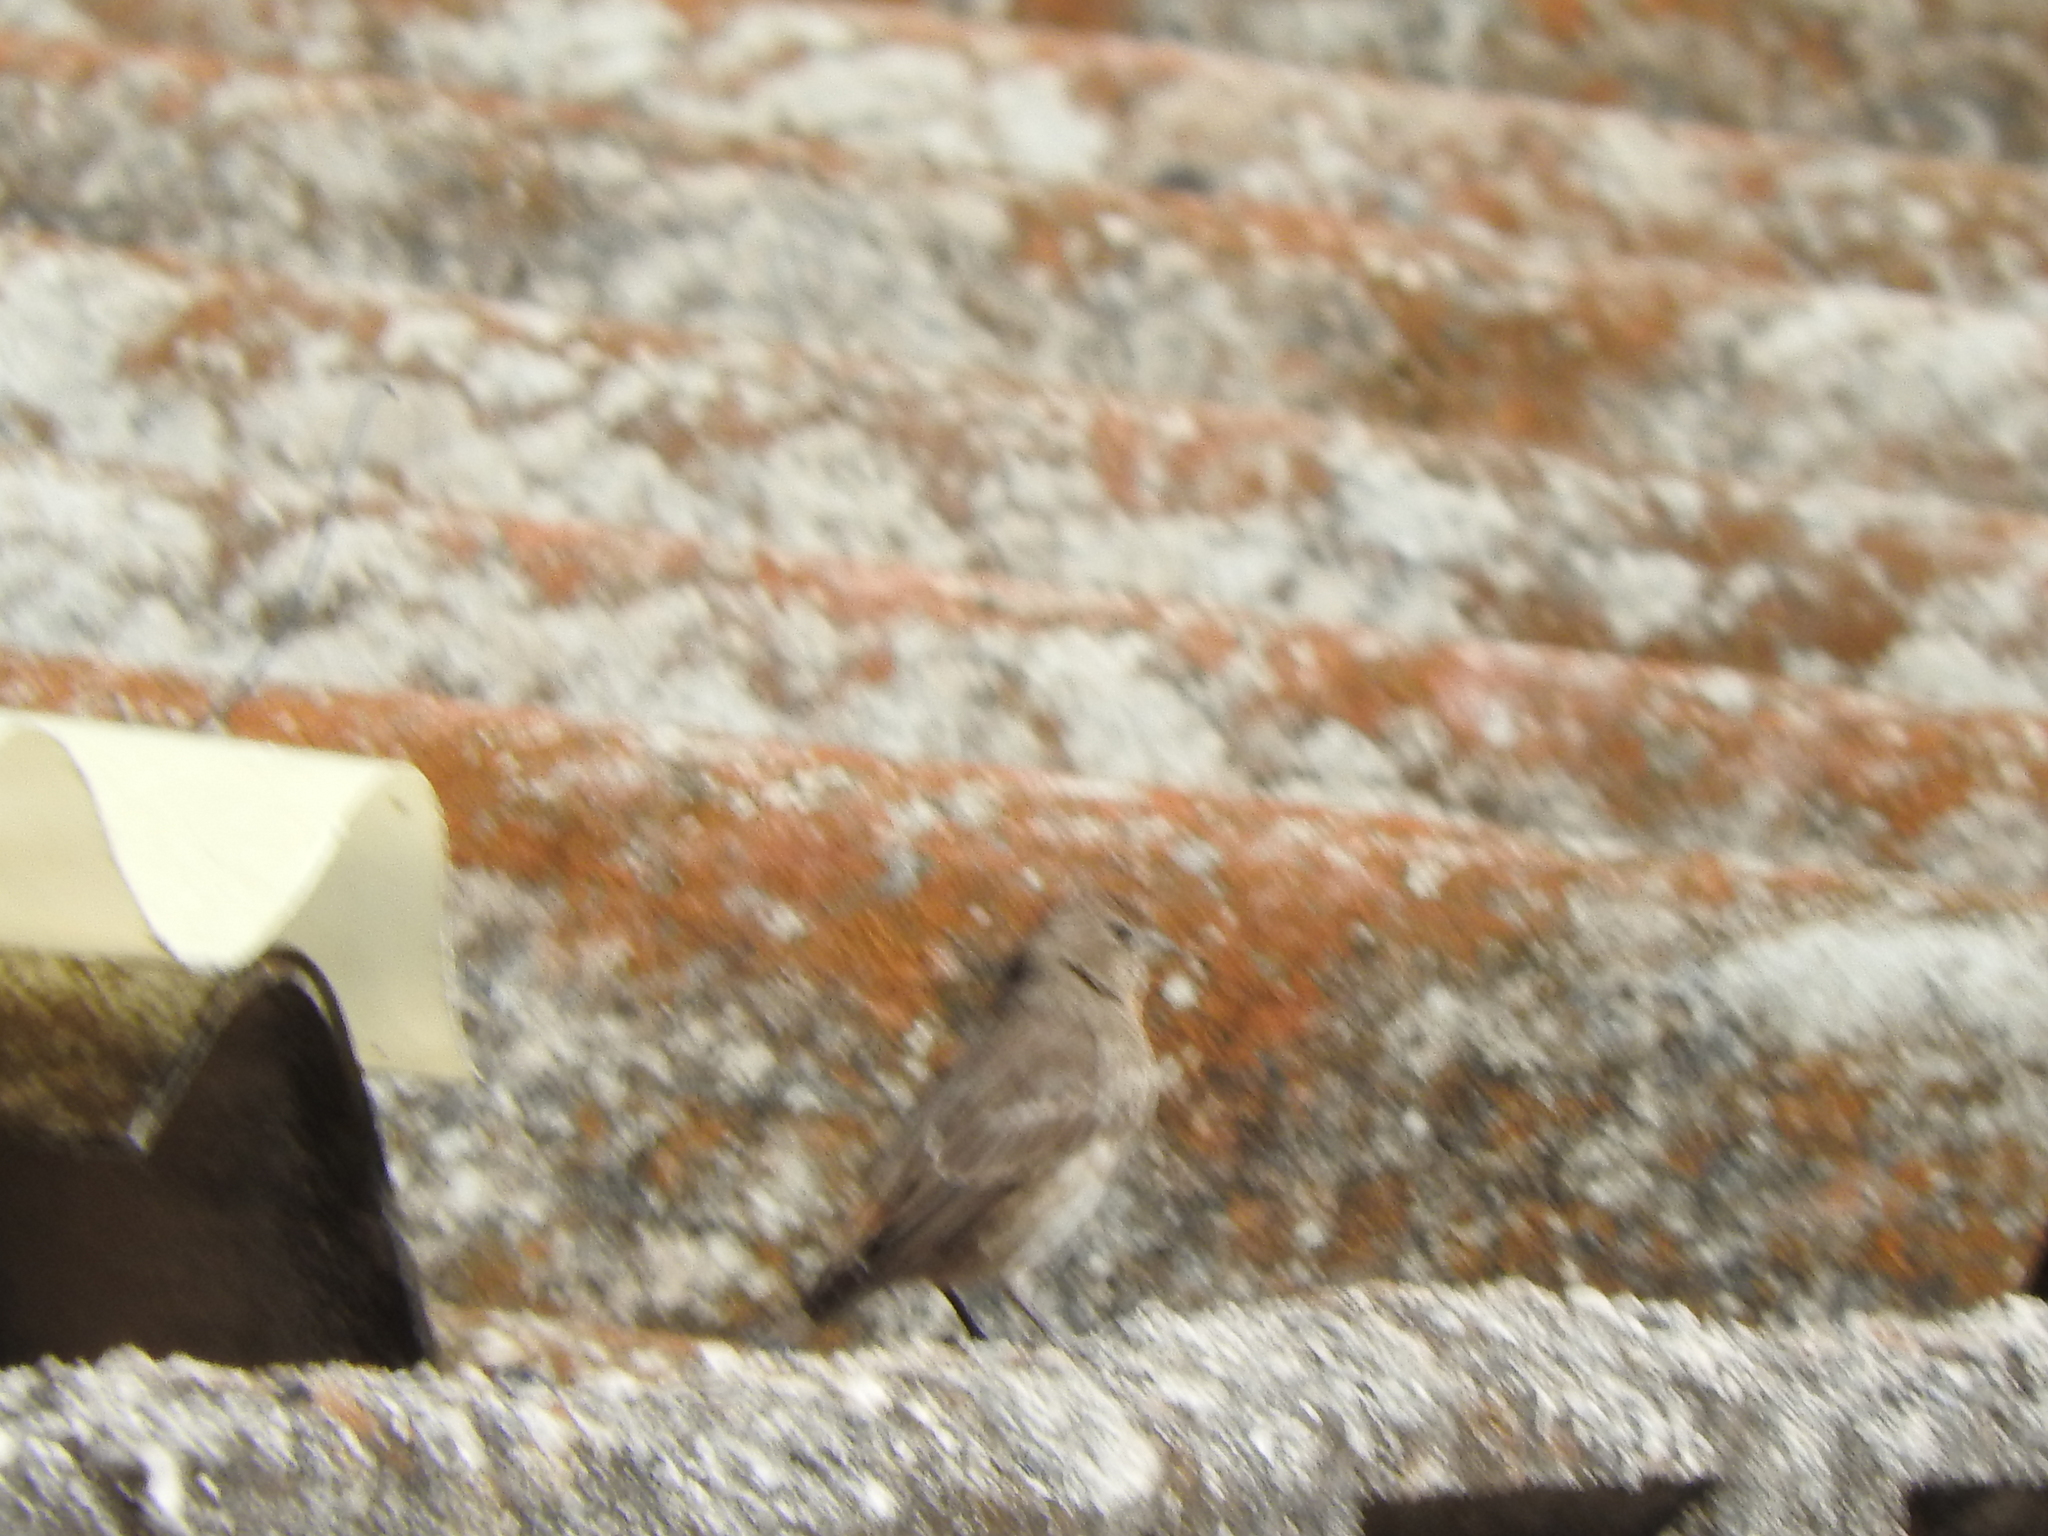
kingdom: Animalia
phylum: Chordata
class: Aves
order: Passeriformes
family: Fringillidae
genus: Haemorhous
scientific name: Haemorhous mexicanus
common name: House finch
